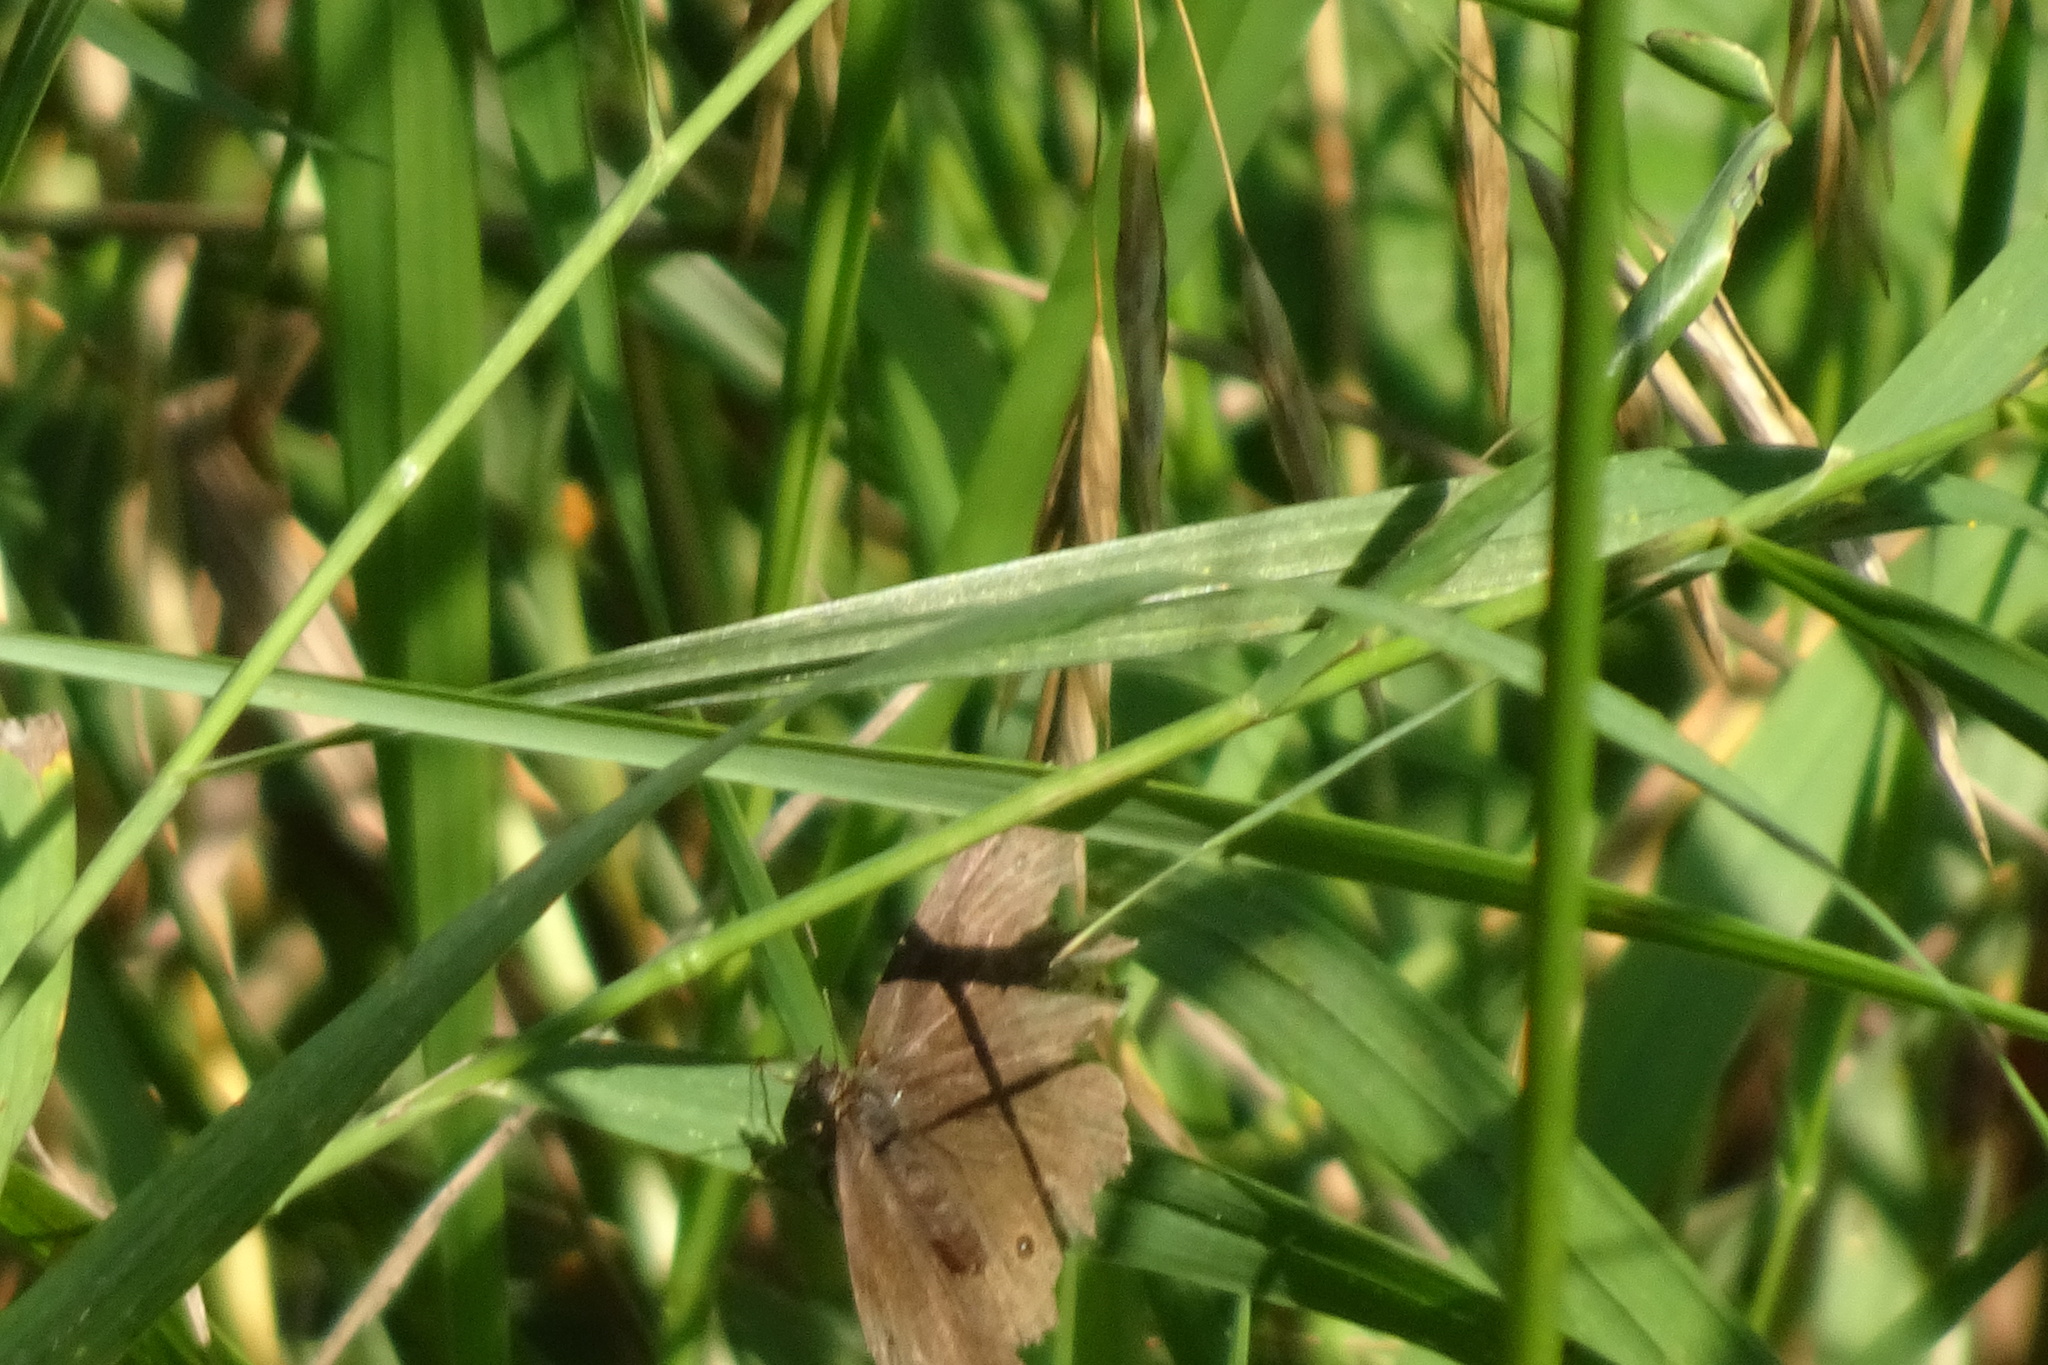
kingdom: Animalia
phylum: Arthropoda
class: Insecta
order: Lepidoptera
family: Nymphalidae
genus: Aphantopus
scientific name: Aphantopus hyperantus
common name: Ringlet
